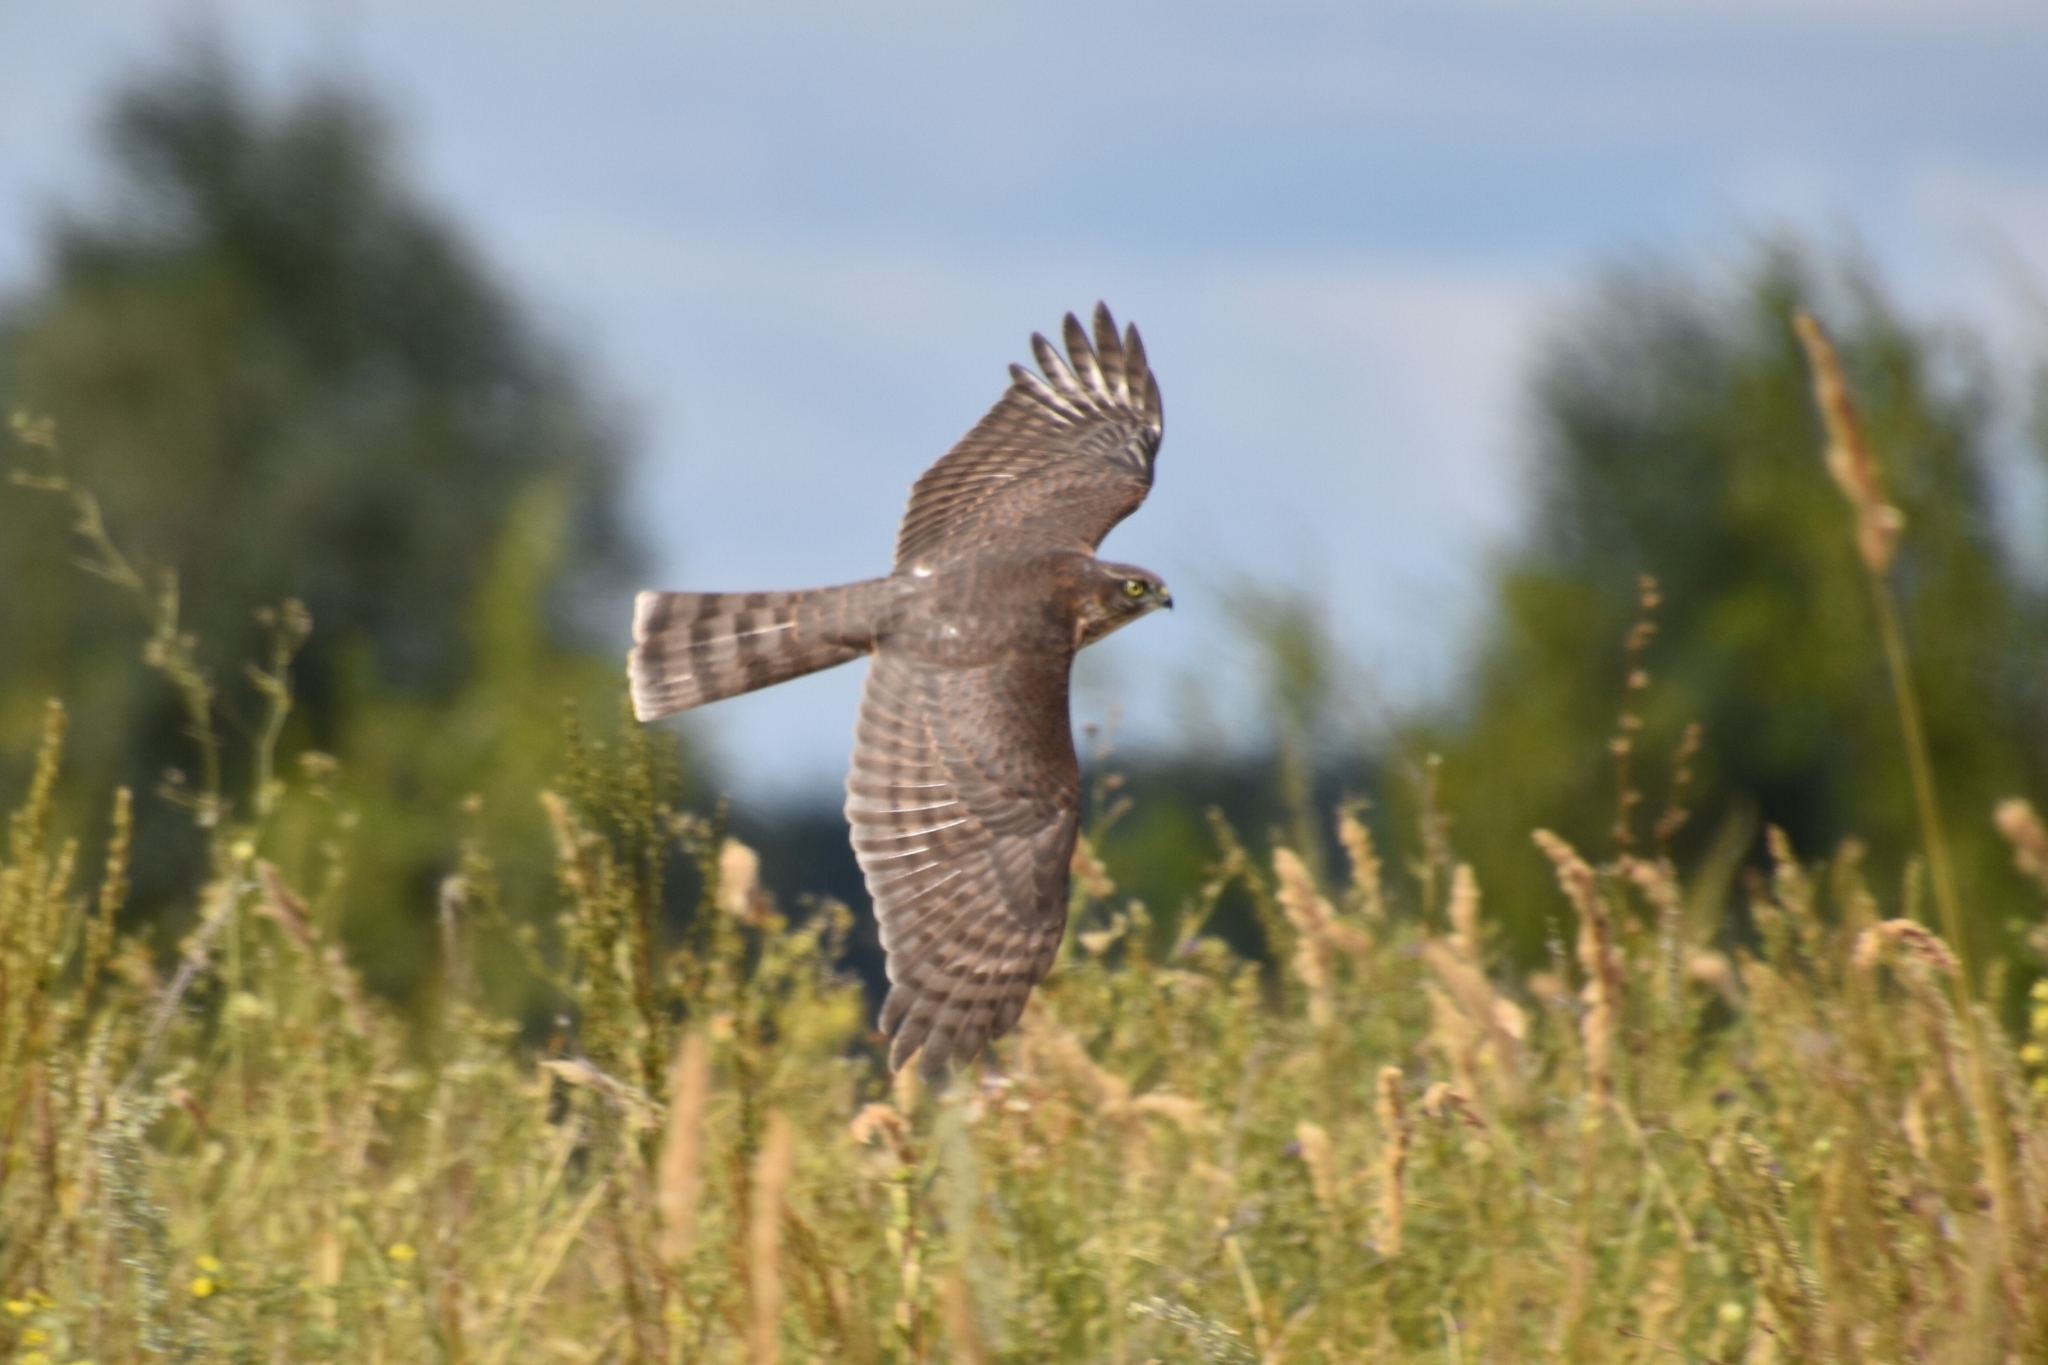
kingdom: Animalia
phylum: Chordata
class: Aves
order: Accipitriformes
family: Accipitridae
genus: Accipiter
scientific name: Accipiter nisus
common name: Eurasian sparrowhawk
